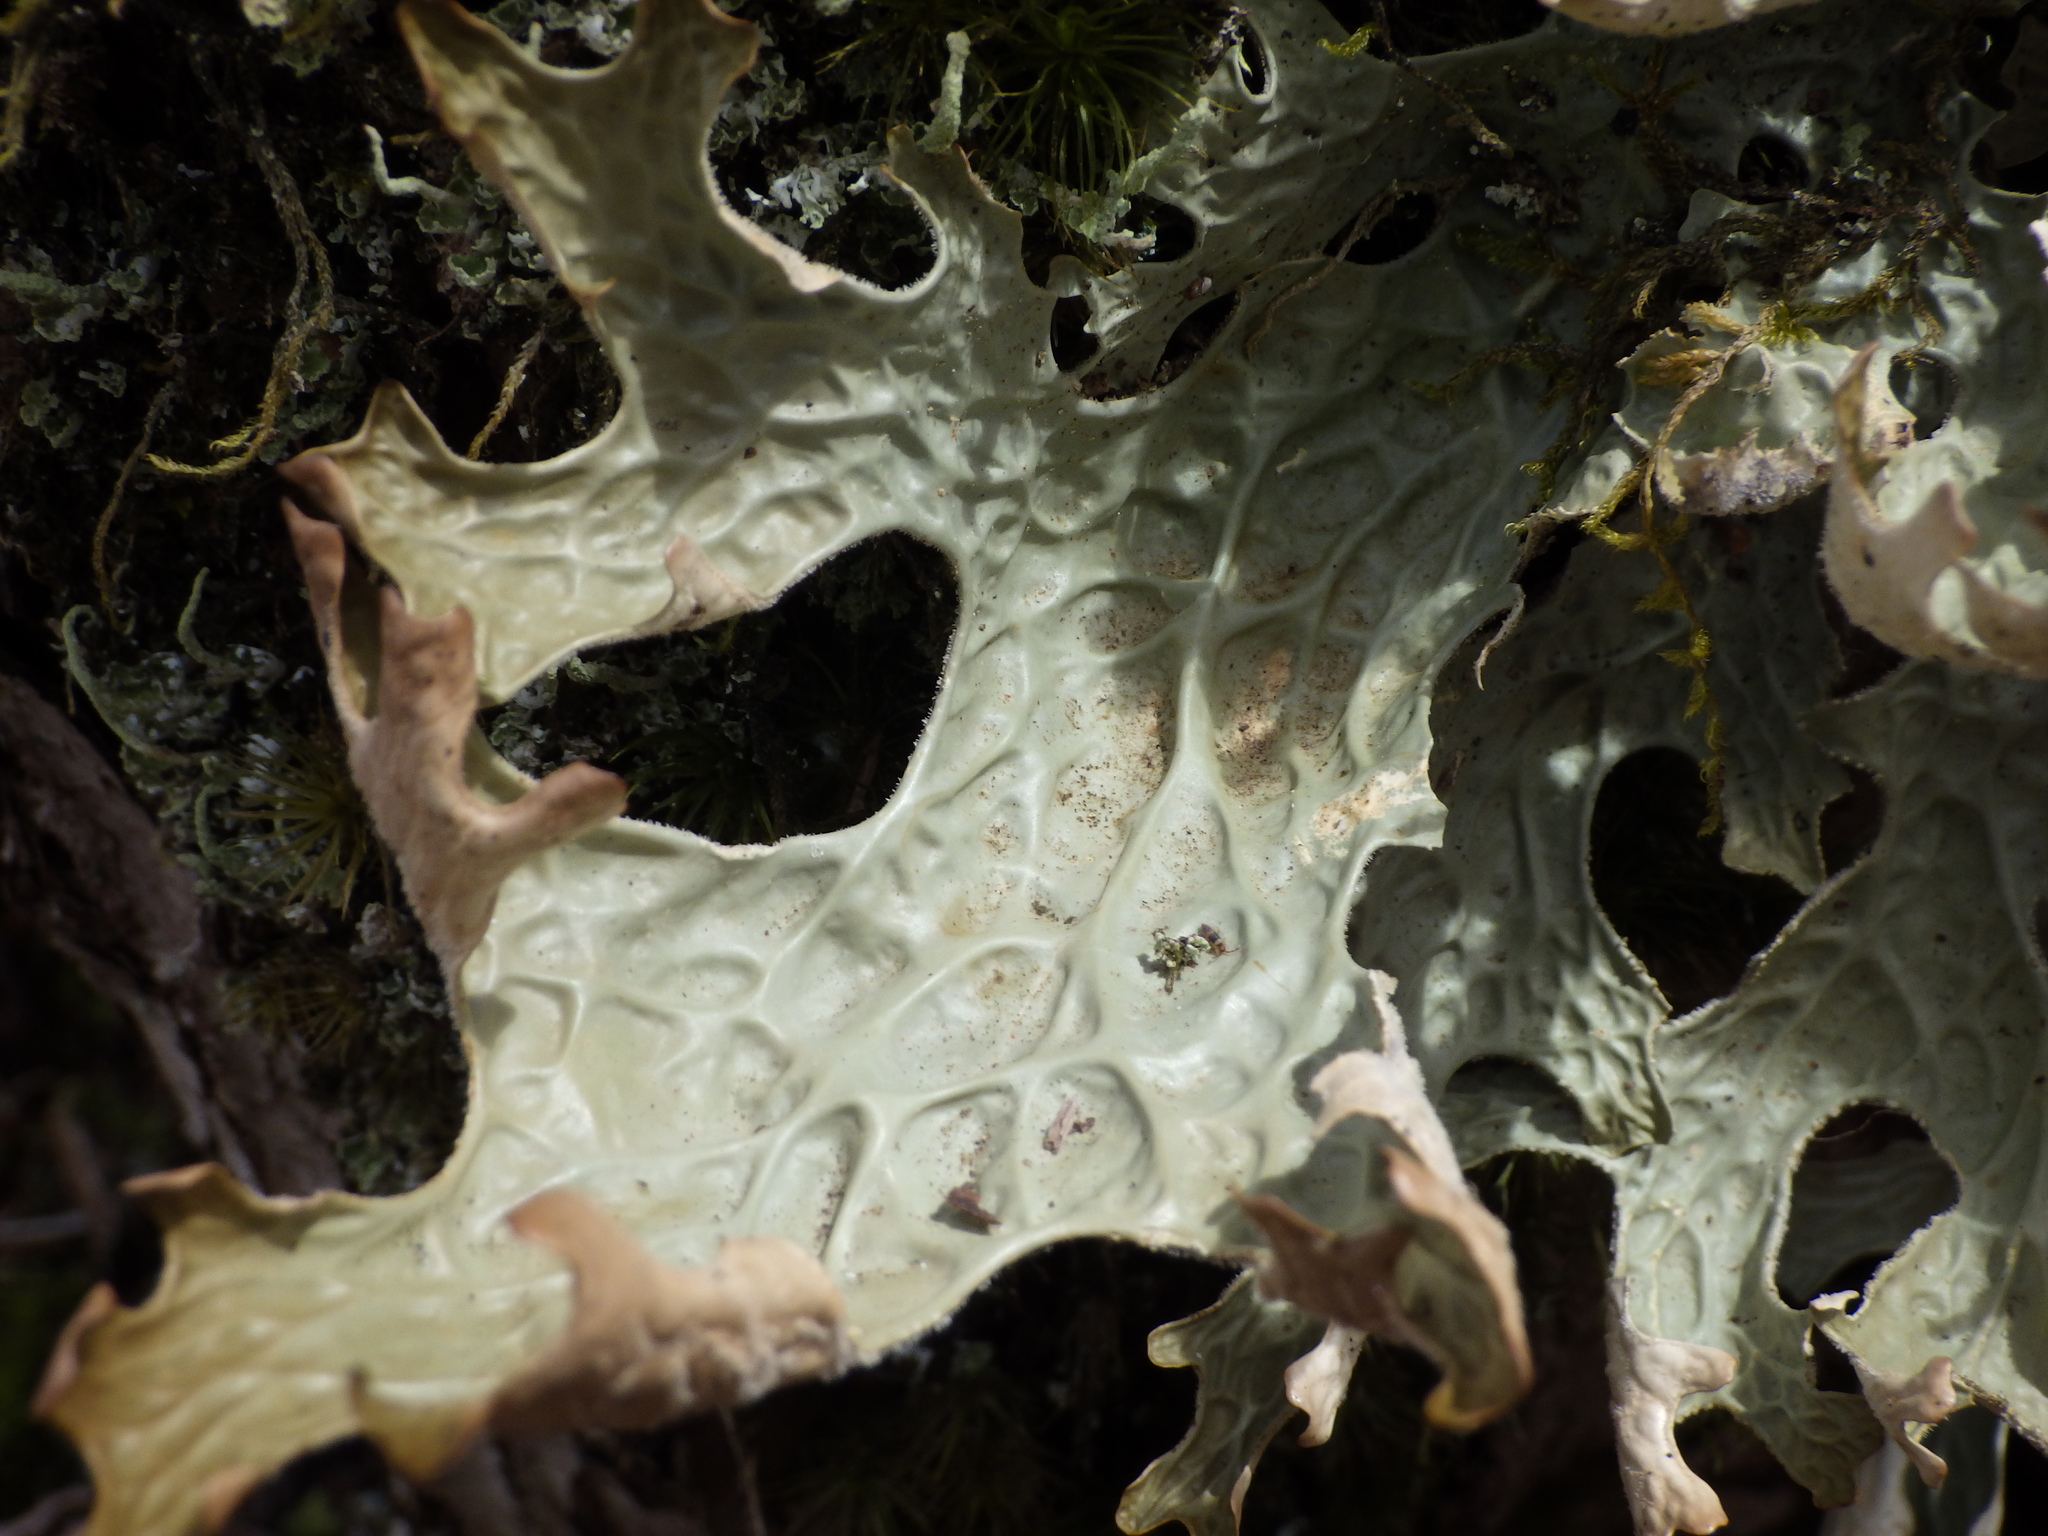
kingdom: Fungi
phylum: Ascomycota
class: Lecanoromycetes
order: Peltigerales
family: Lobariaceae
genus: Lobaria
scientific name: Lobaria pulmonaria
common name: Lungwort
